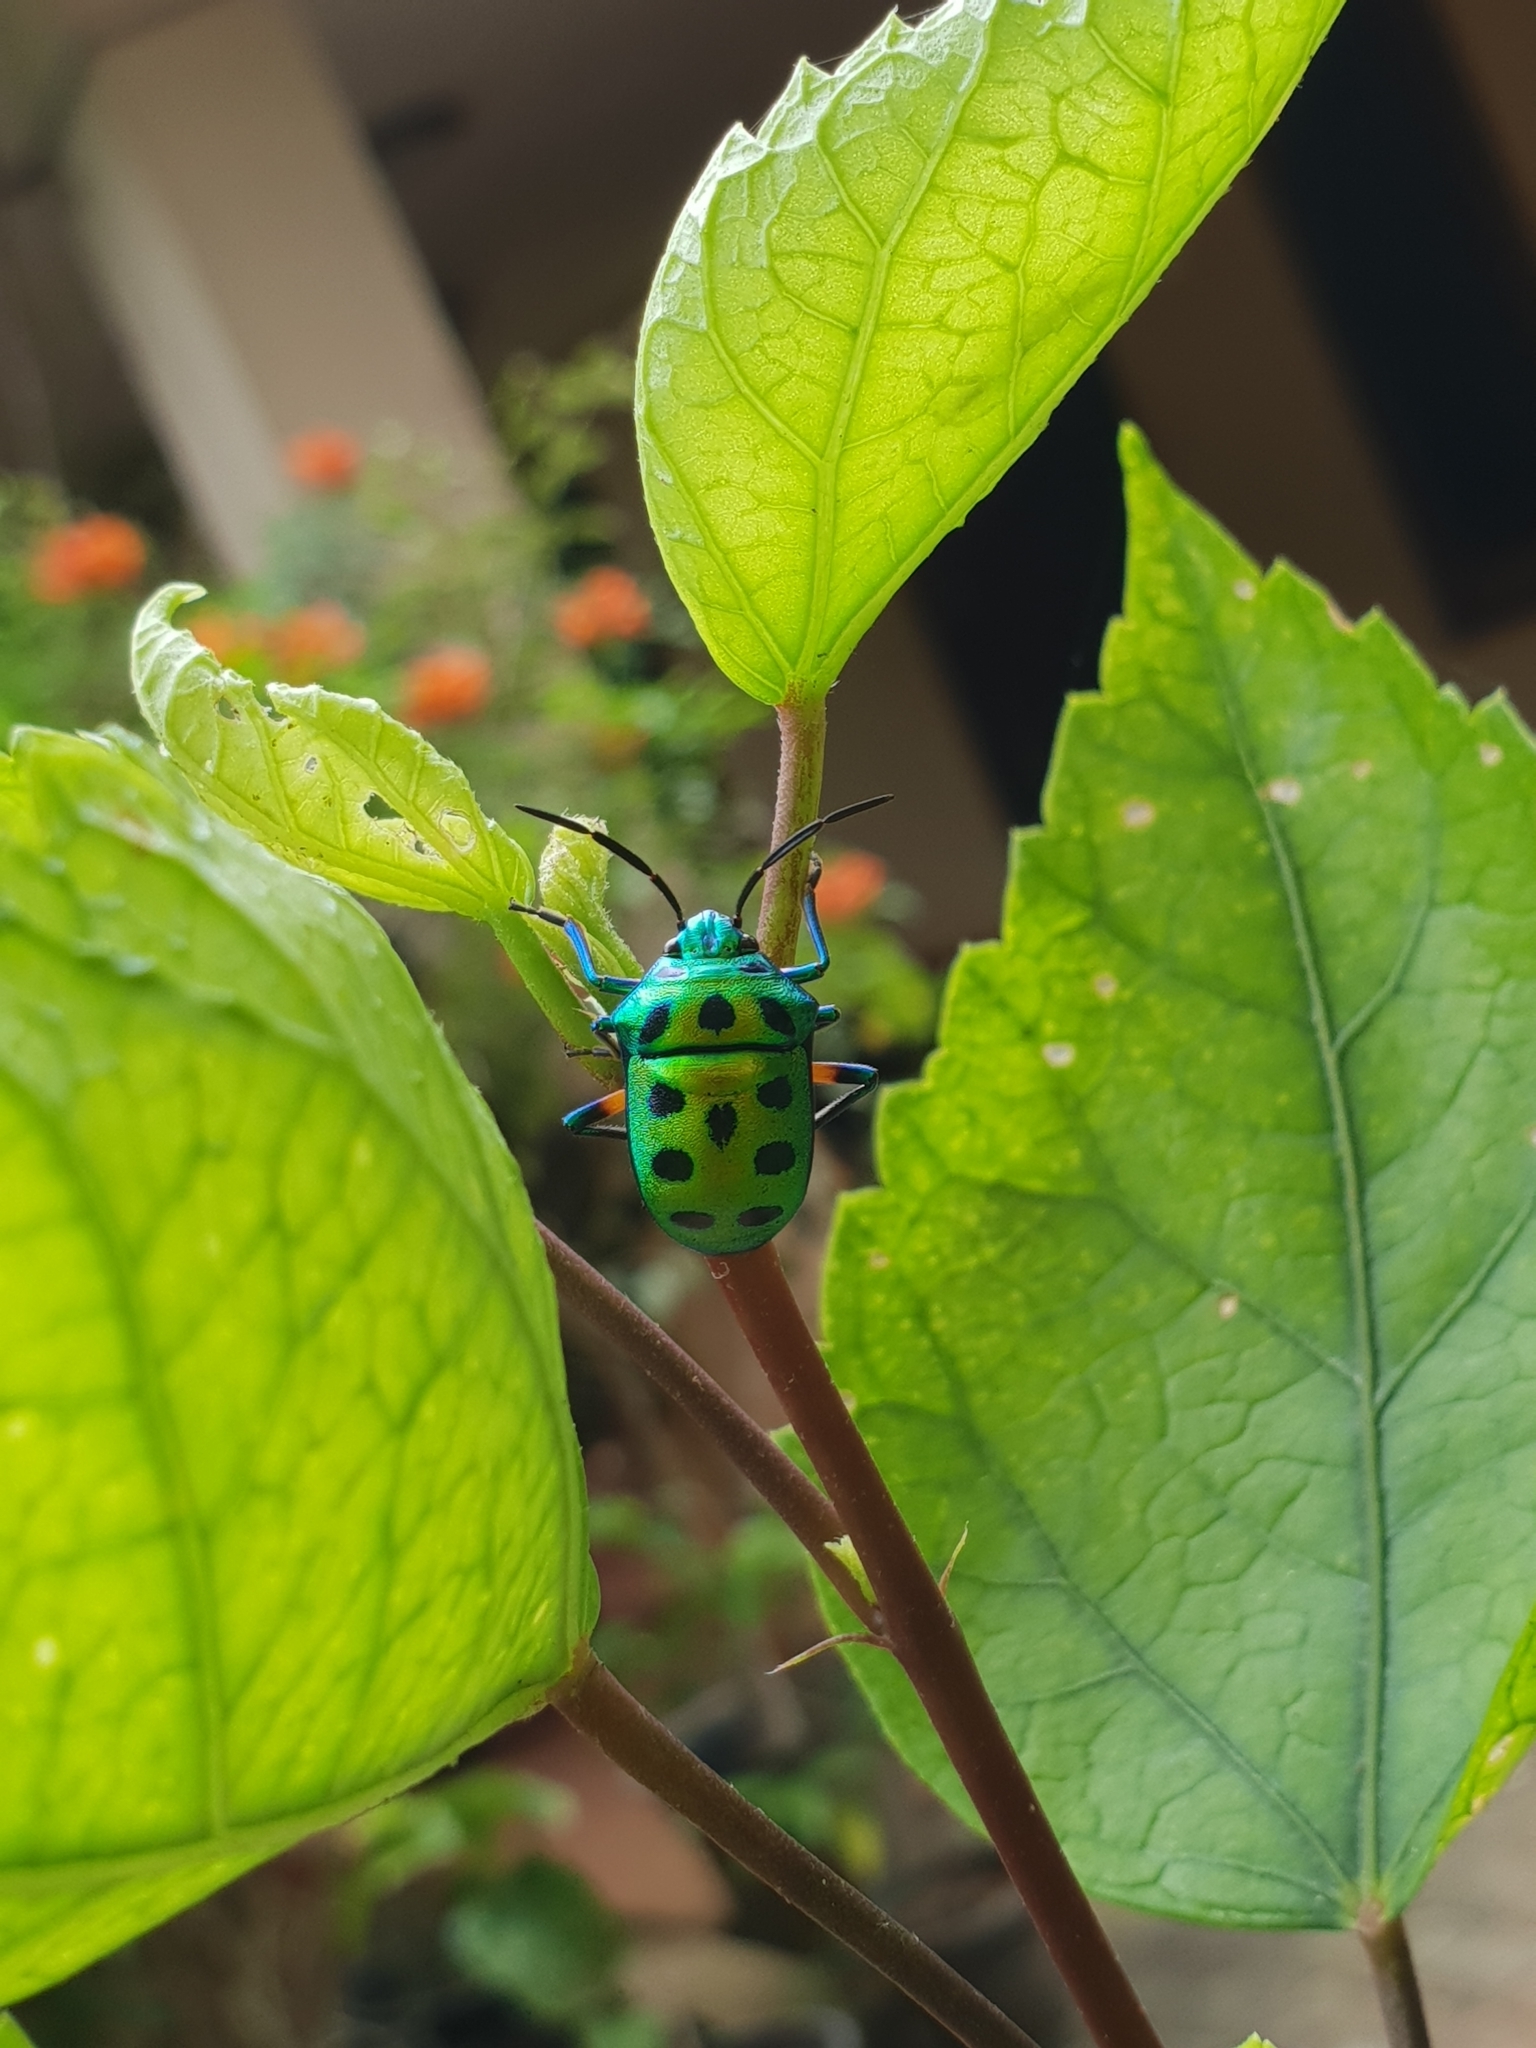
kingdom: Animalia
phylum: Arthropoda
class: Insecta
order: Hemiptera
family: Scutelleridae
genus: Chrysocoris
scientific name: Chrysocoris purpureus
